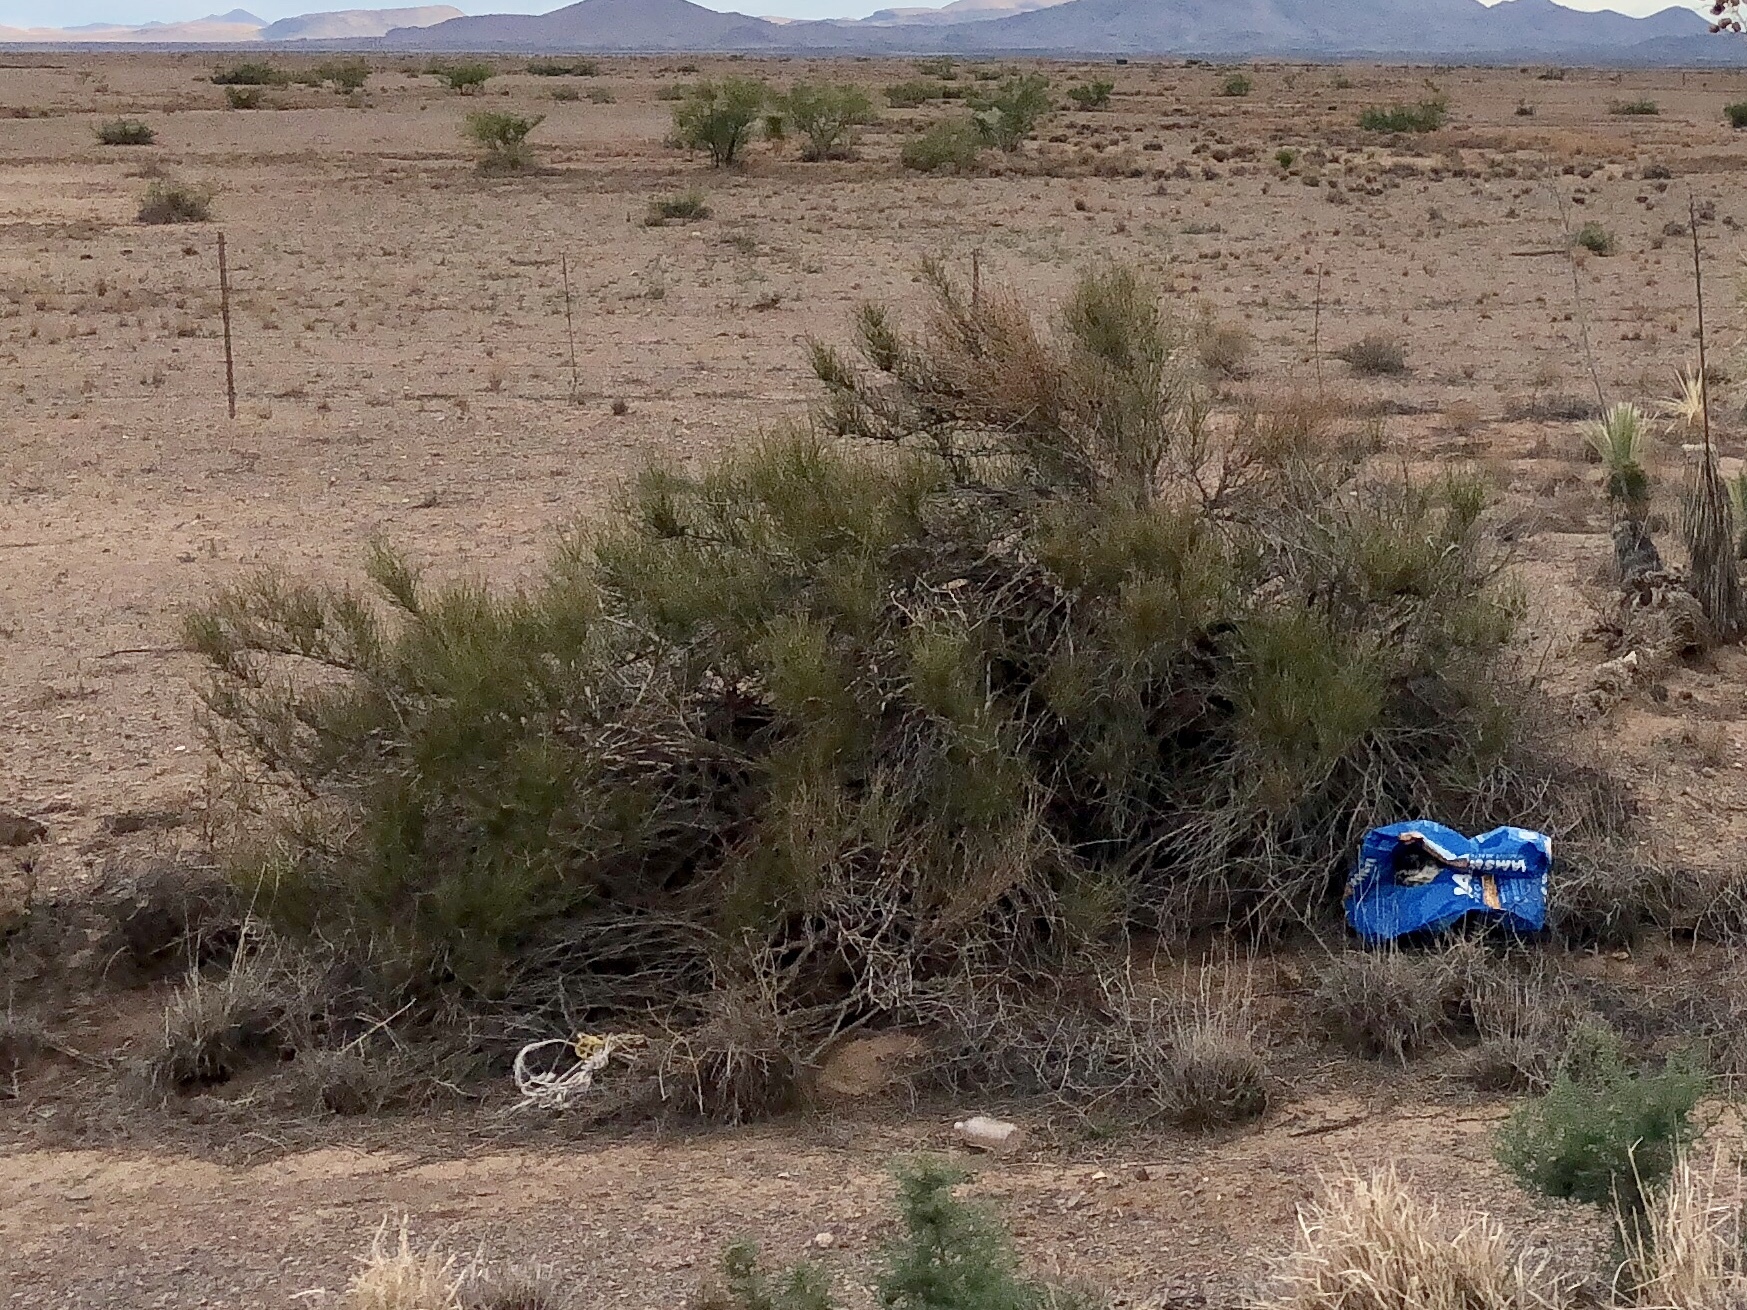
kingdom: Plantae
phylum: Tracheophyta
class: Gnetopsida
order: Ephedrales
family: Ephedraceae
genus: Ephedra
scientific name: Ephedra trifurca
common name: Mexican-tea
